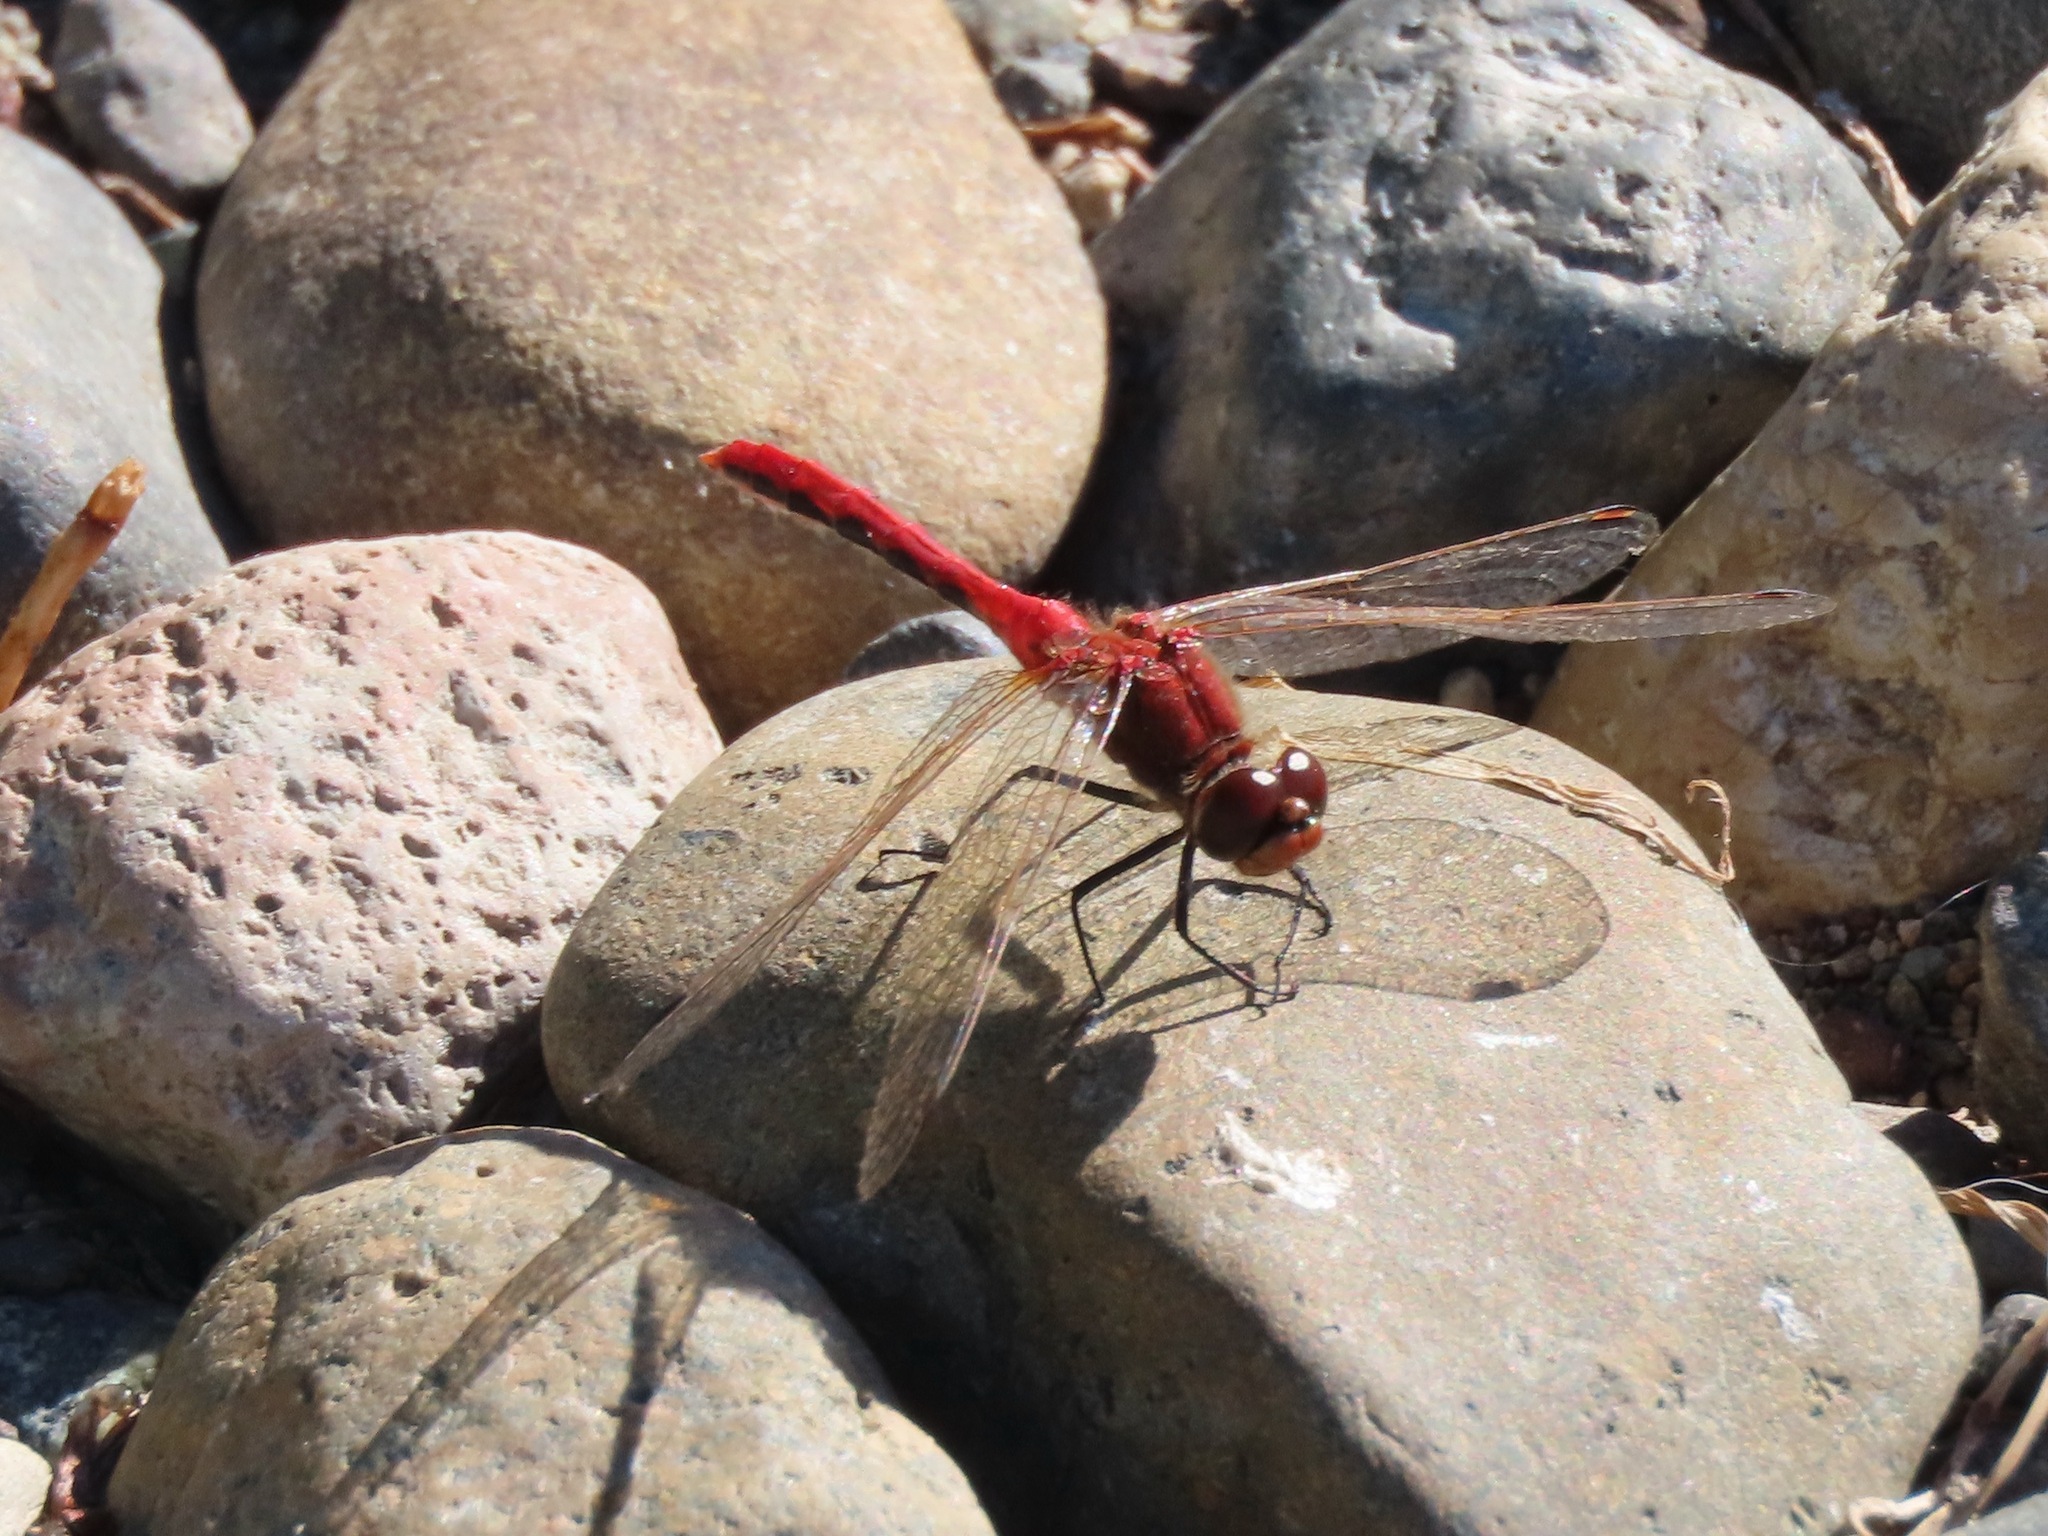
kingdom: Animalia
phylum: Arthropoda
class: Insecta
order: Odonata
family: Libellulidae
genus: Sympetrum
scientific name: Sympetrum internum
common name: Cherry-faced meadowhawk
